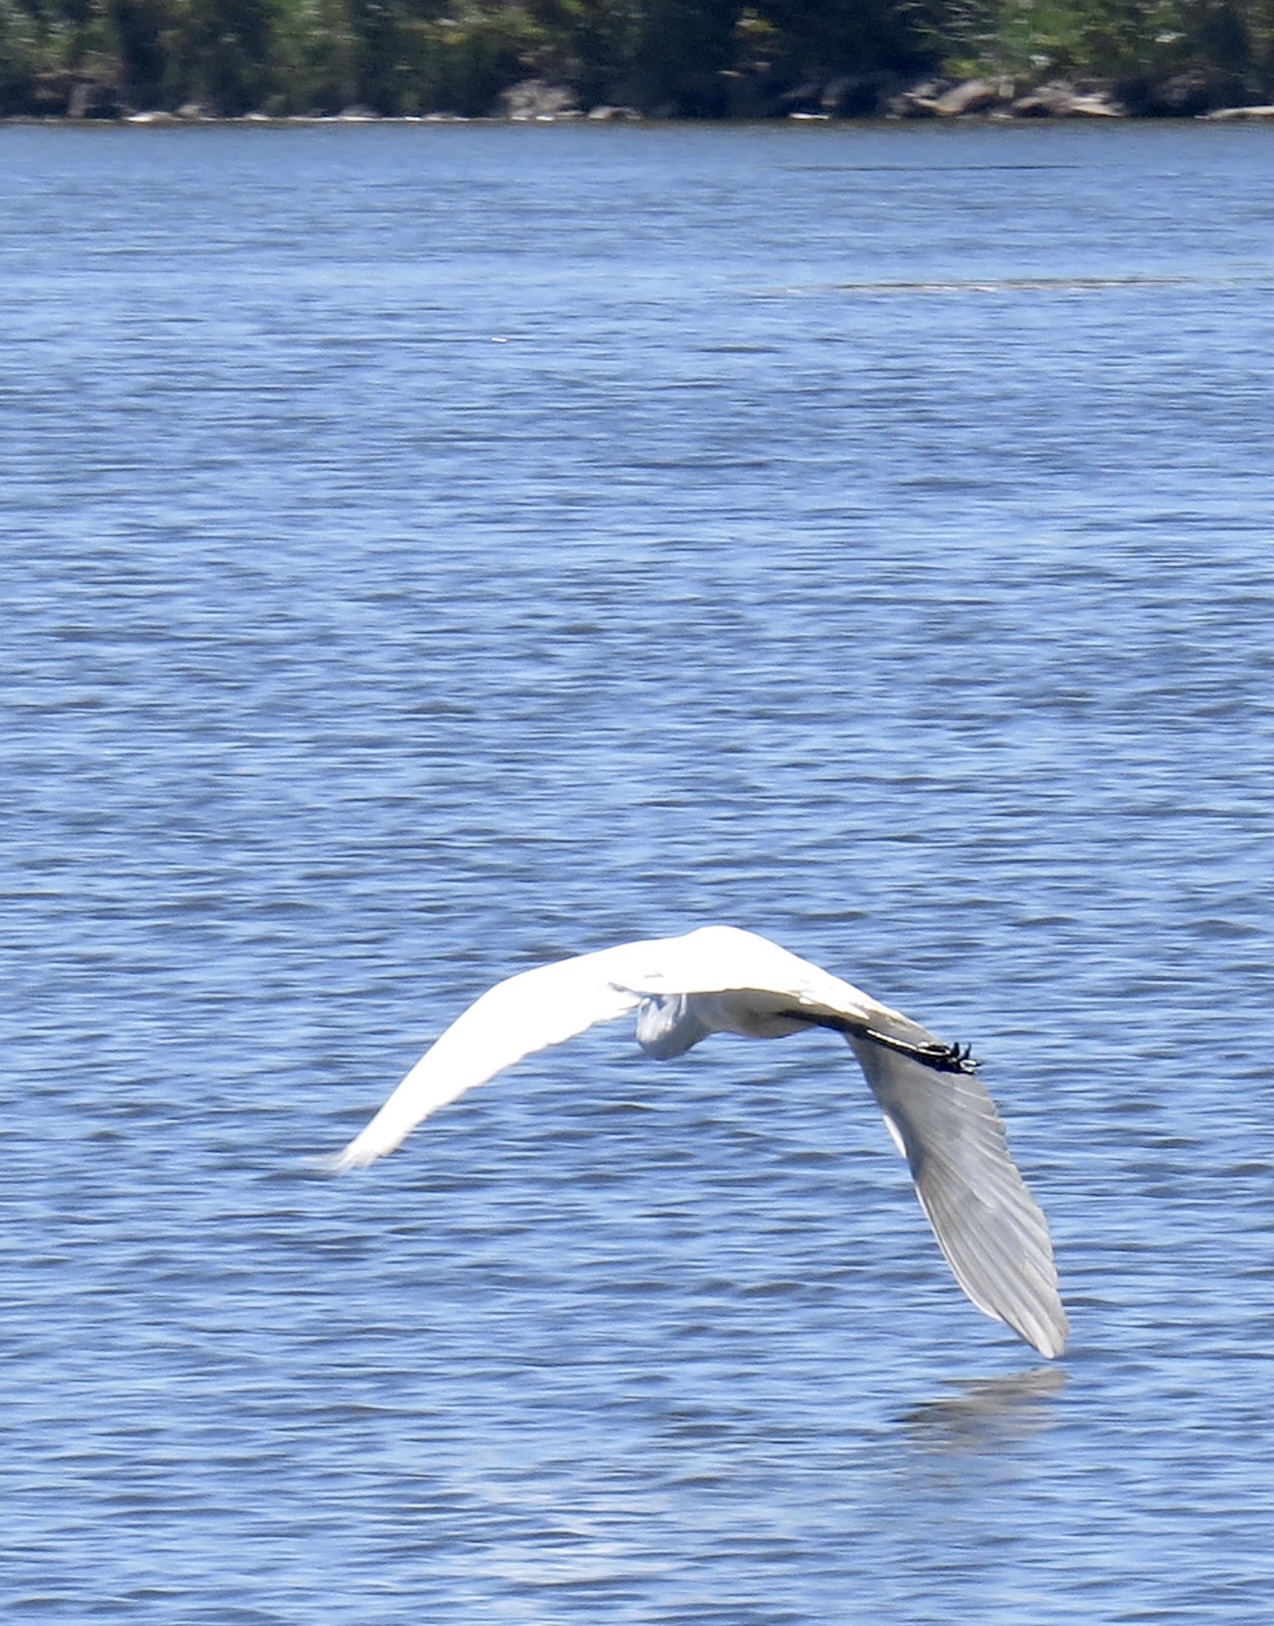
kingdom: Animalia
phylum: Chordata
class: Aves
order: Pelecaniformes
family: Ardeidae
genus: Ardea
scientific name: Ardea alba
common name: Great egret
